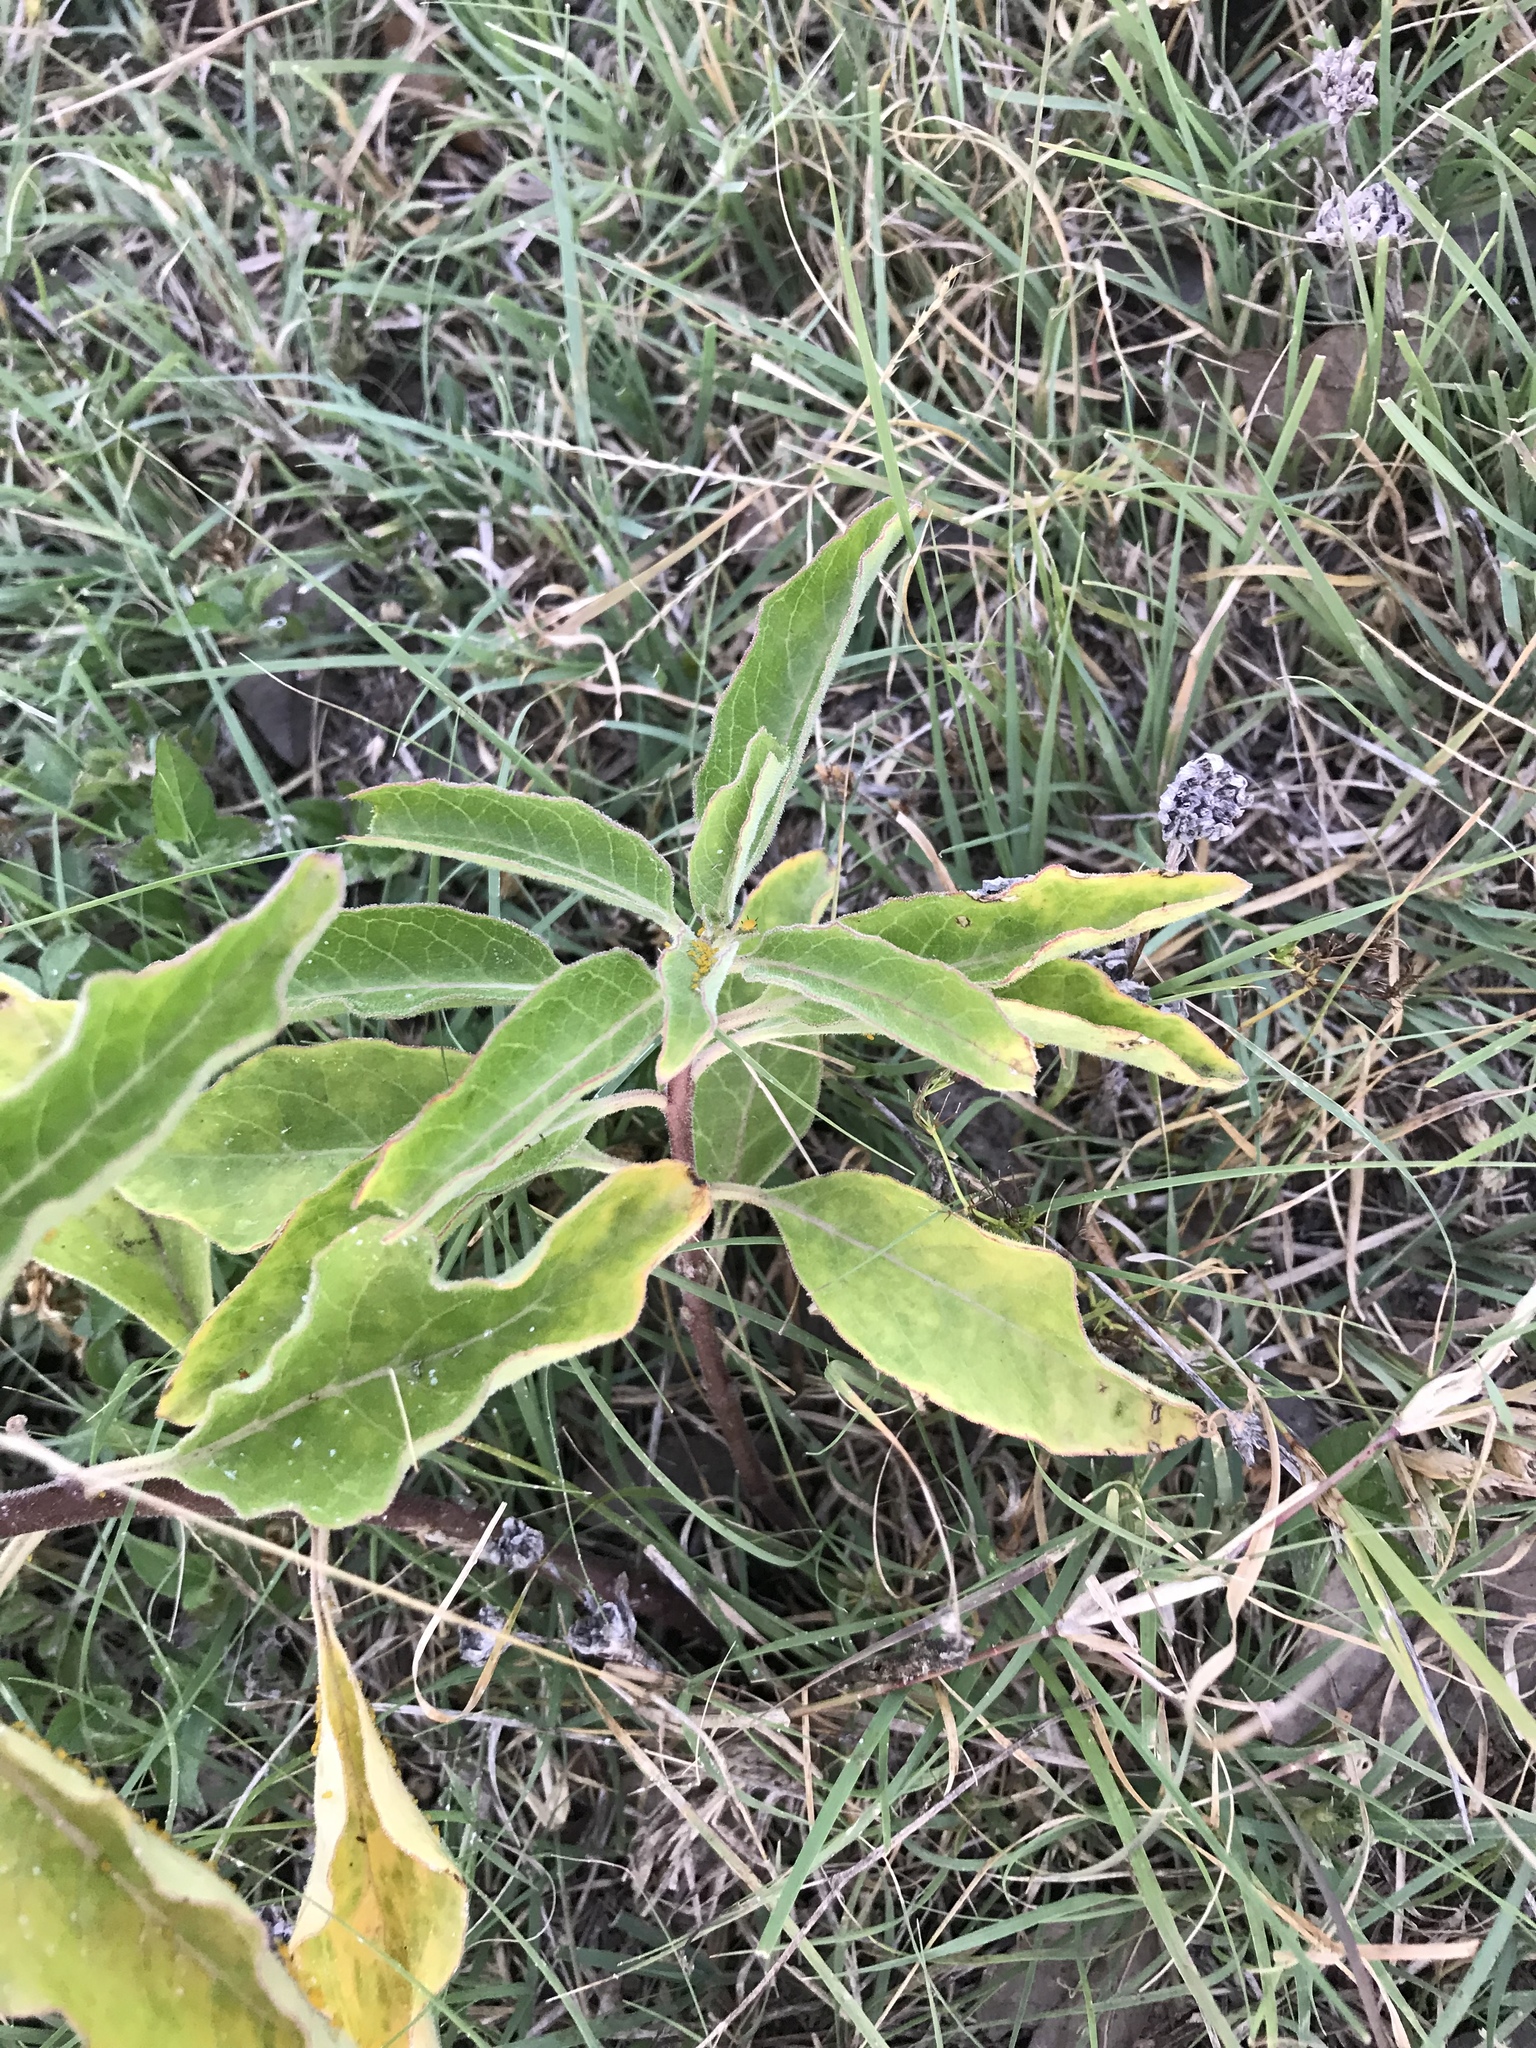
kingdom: Plantae
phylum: Tracheophyta
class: Magnoliopsida
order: Gentianales
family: Apocynaceae
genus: Asclepias
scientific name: Asclepias oenotheroides
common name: Zizotes milkweed
